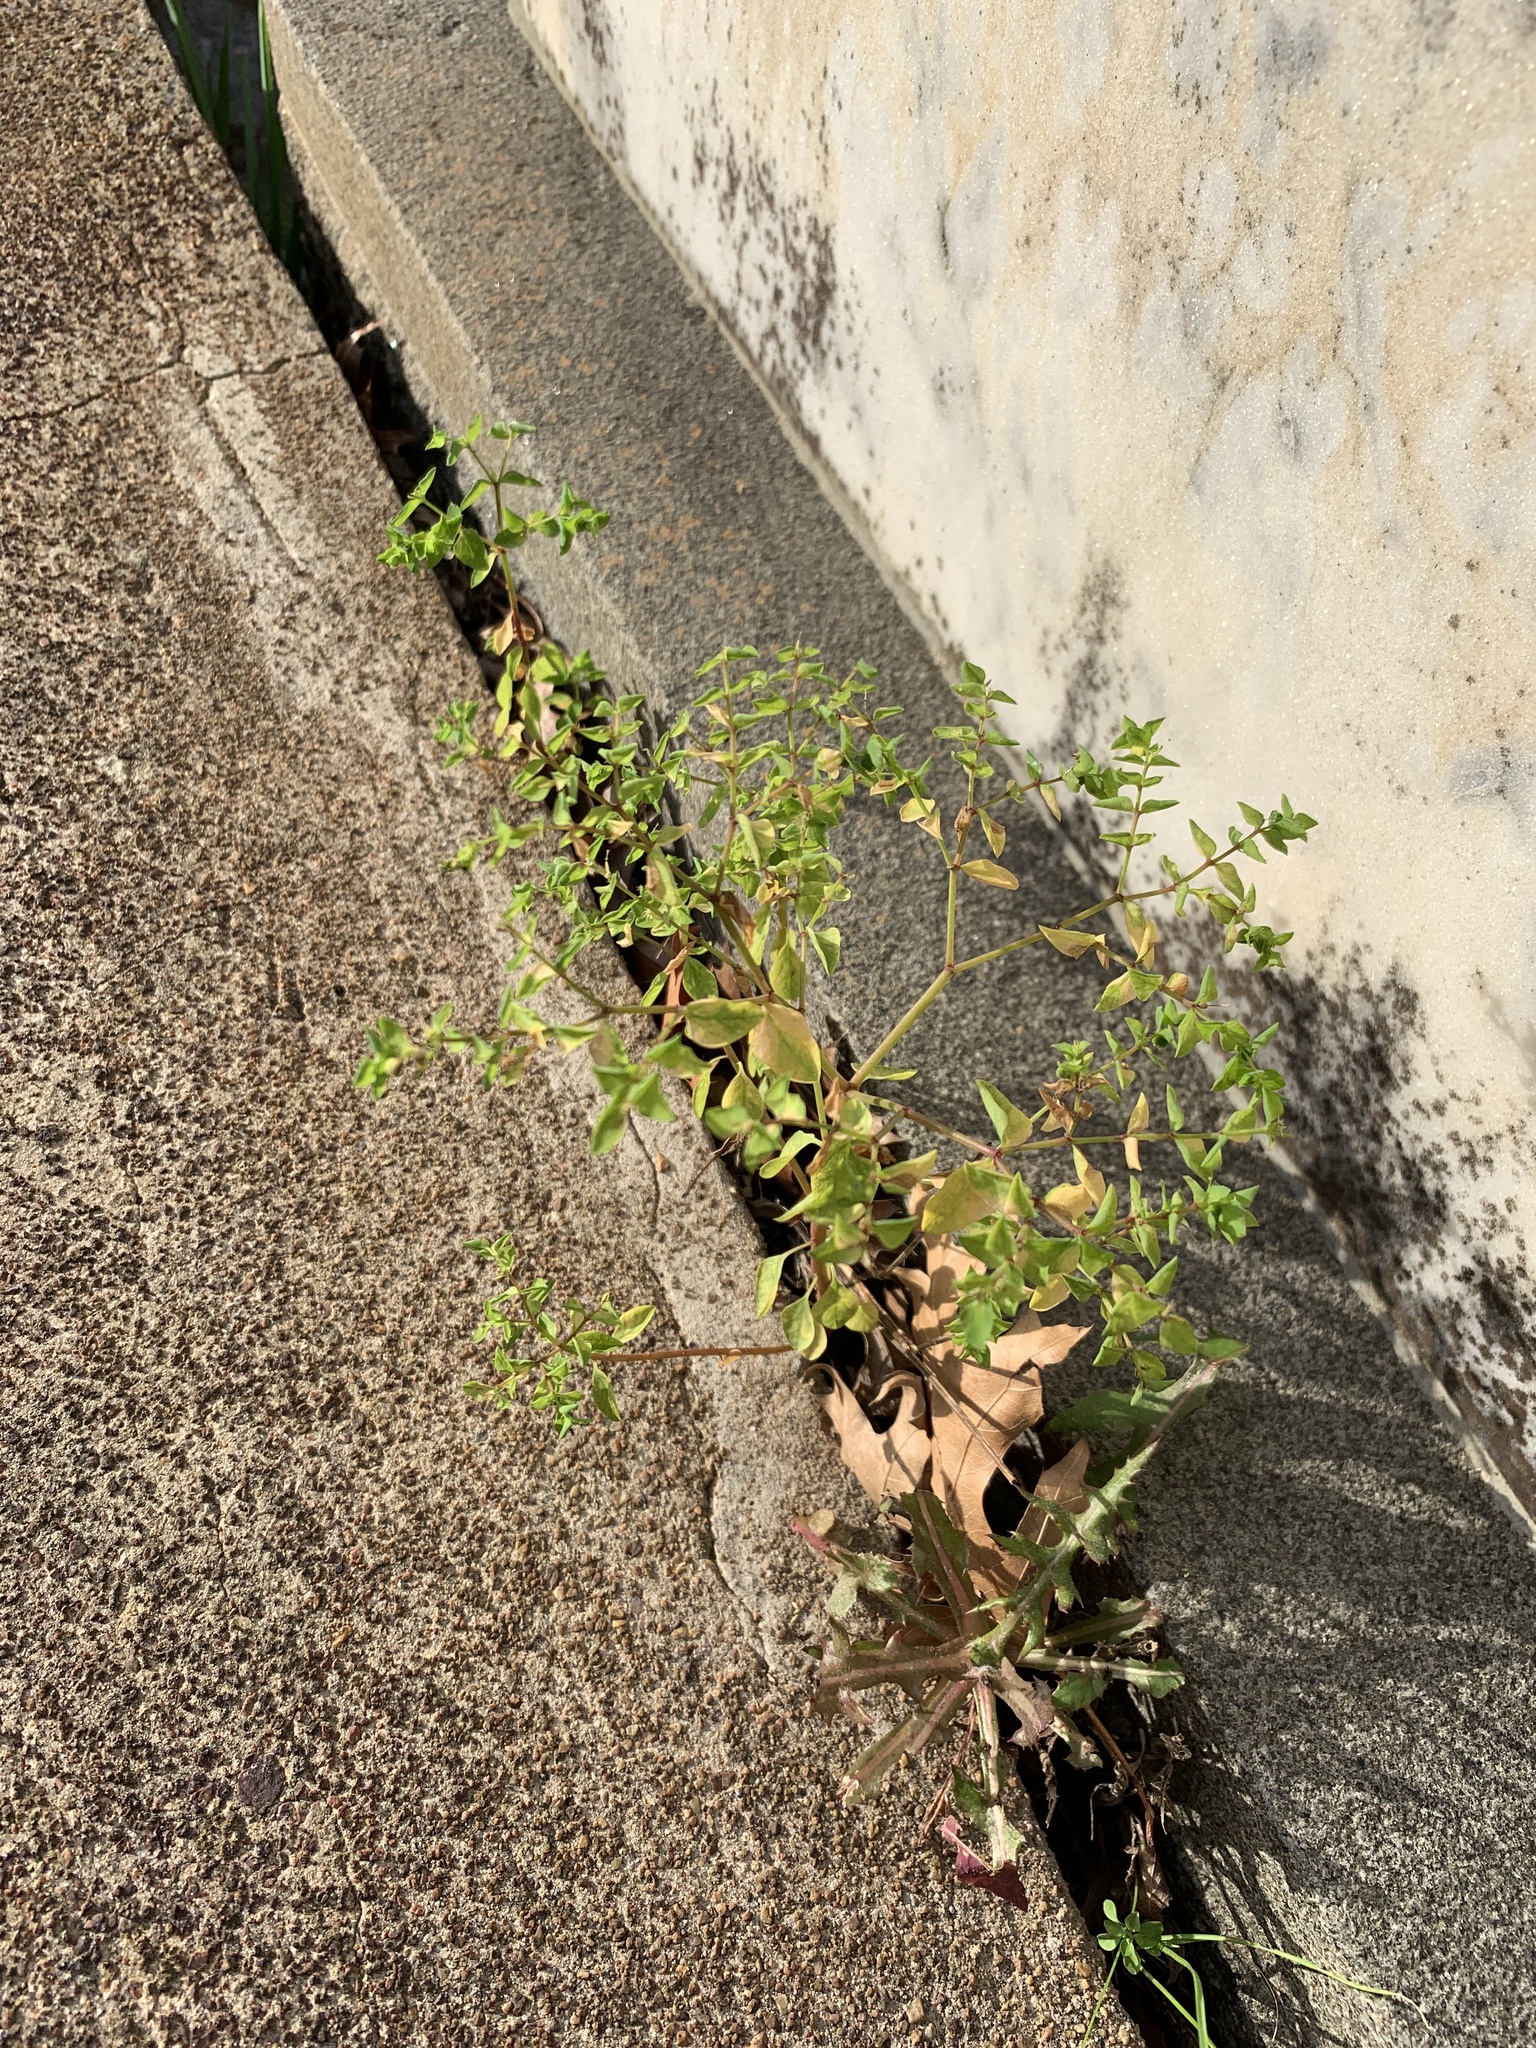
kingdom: Plantae
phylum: Tracheophyta
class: Magnoliopsida
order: Malpighiales
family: Euphorbiaceae
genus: Euphorbia
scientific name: Euphorbia peplus
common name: Petty spurge
